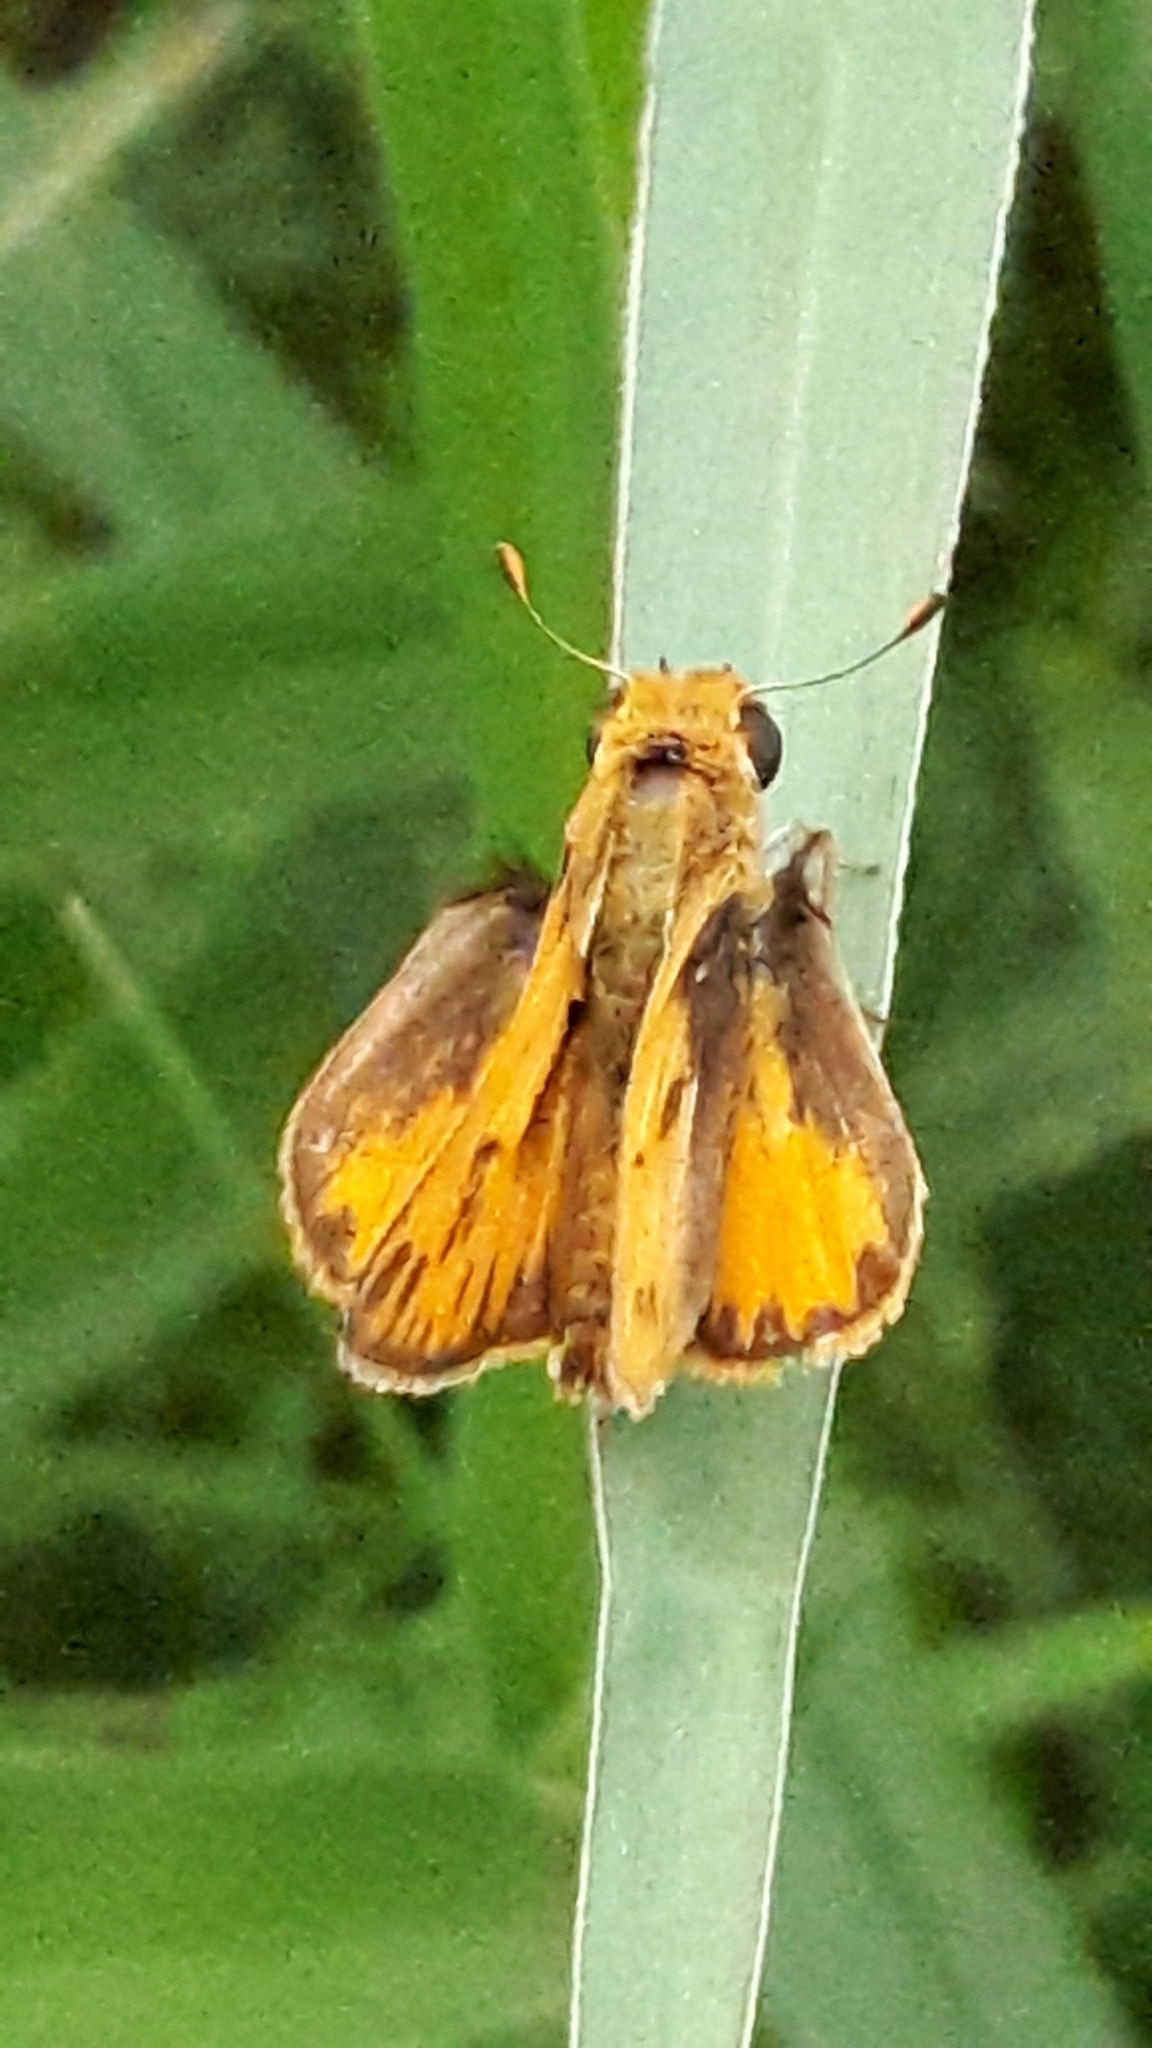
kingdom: Animalia
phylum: Arthropoda
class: Insecta
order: Lepidoptera
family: Hesperiidae
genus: Hylephila
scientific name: Hylephila phyleus
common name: Fiery skipper
